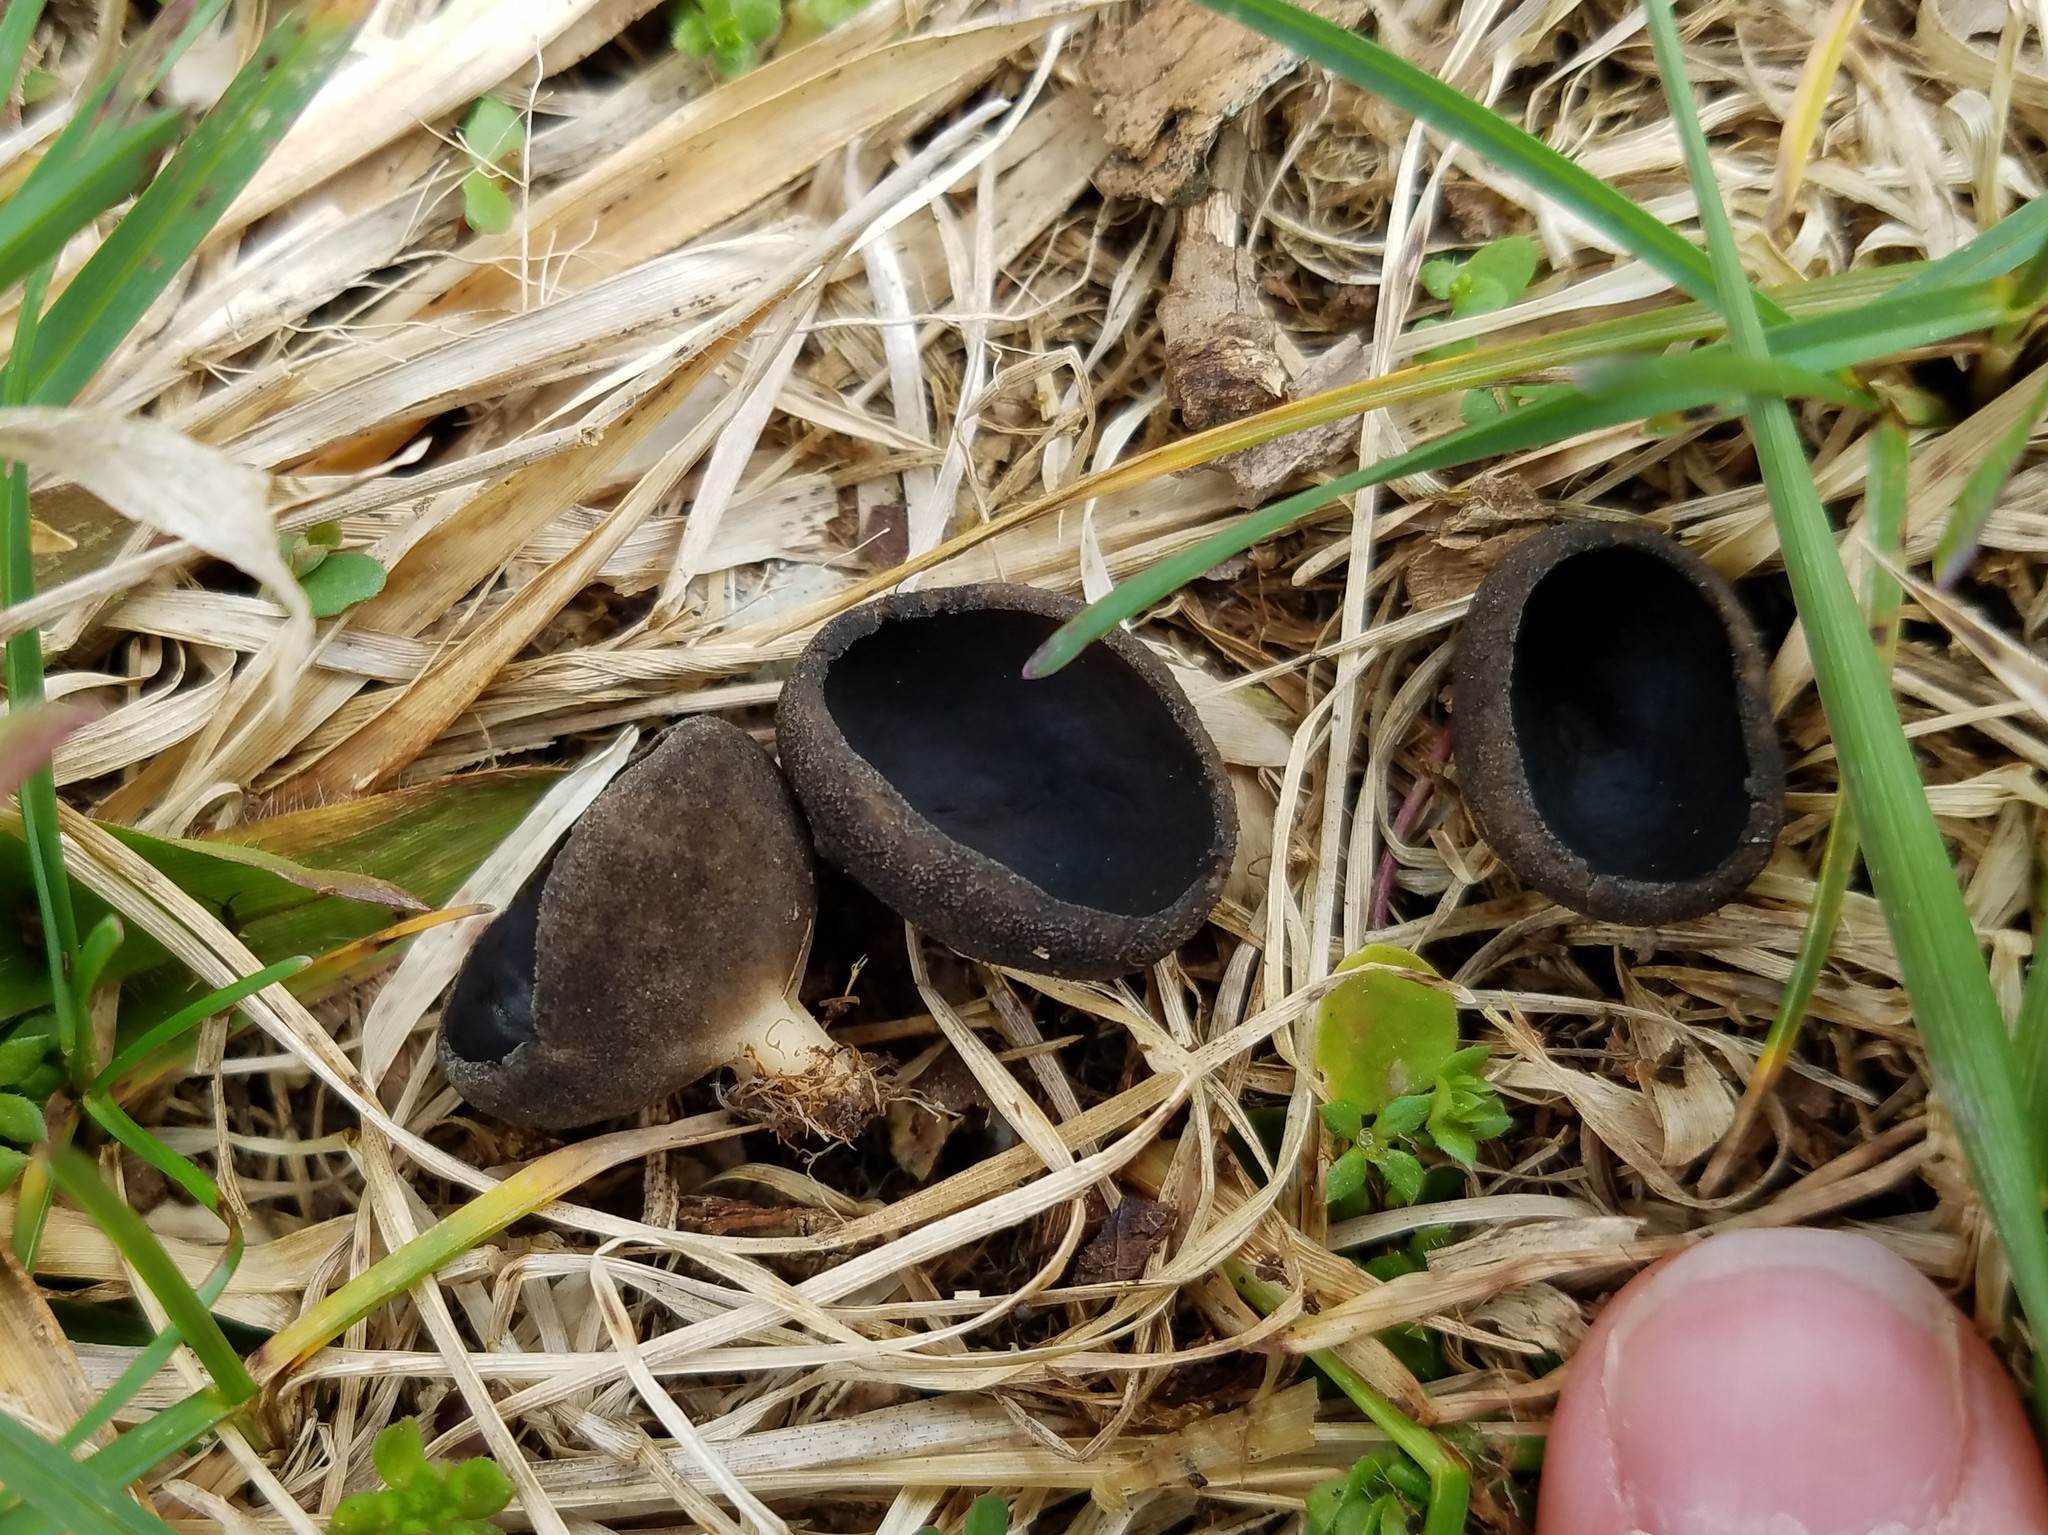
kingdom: Fungi
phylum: Ascomycota
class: Pezizomycetes
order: Pezizales
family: Sarcosomataceae
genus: Urnula
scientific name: Urnula craterium
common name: Devil's urn
